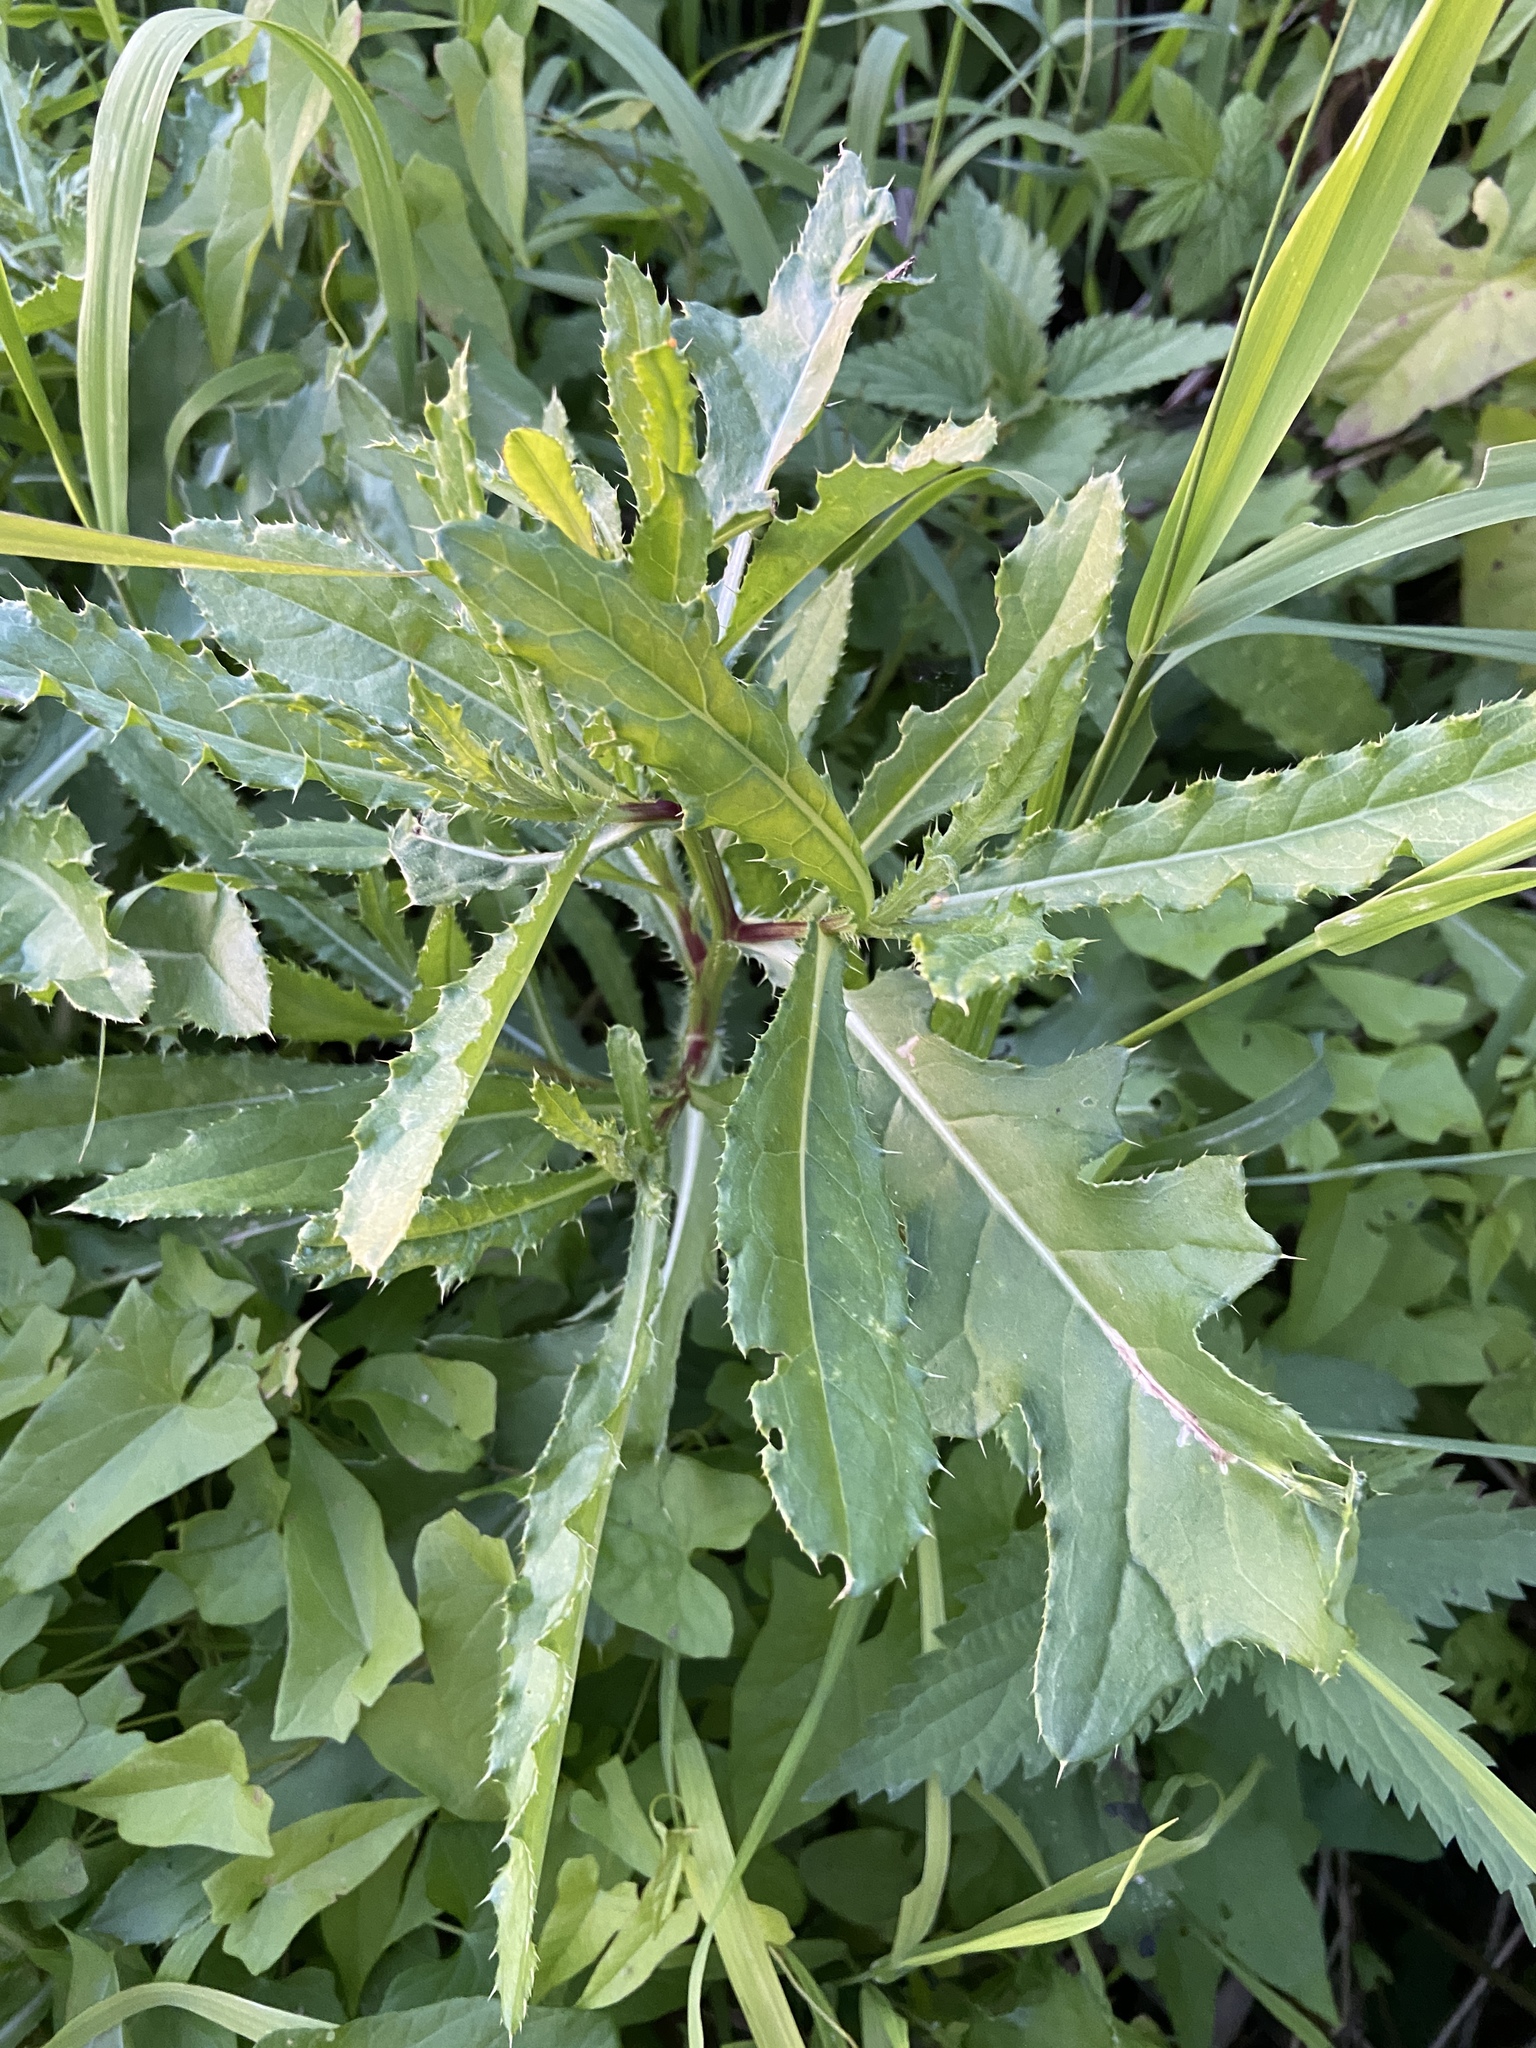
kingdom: Plantae
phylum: Tracheophyta
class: Magnoliopsida
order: Asterales
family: Asteraceae
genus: Cirsium
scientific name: Cirsium arvense
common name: Creeping thistle
